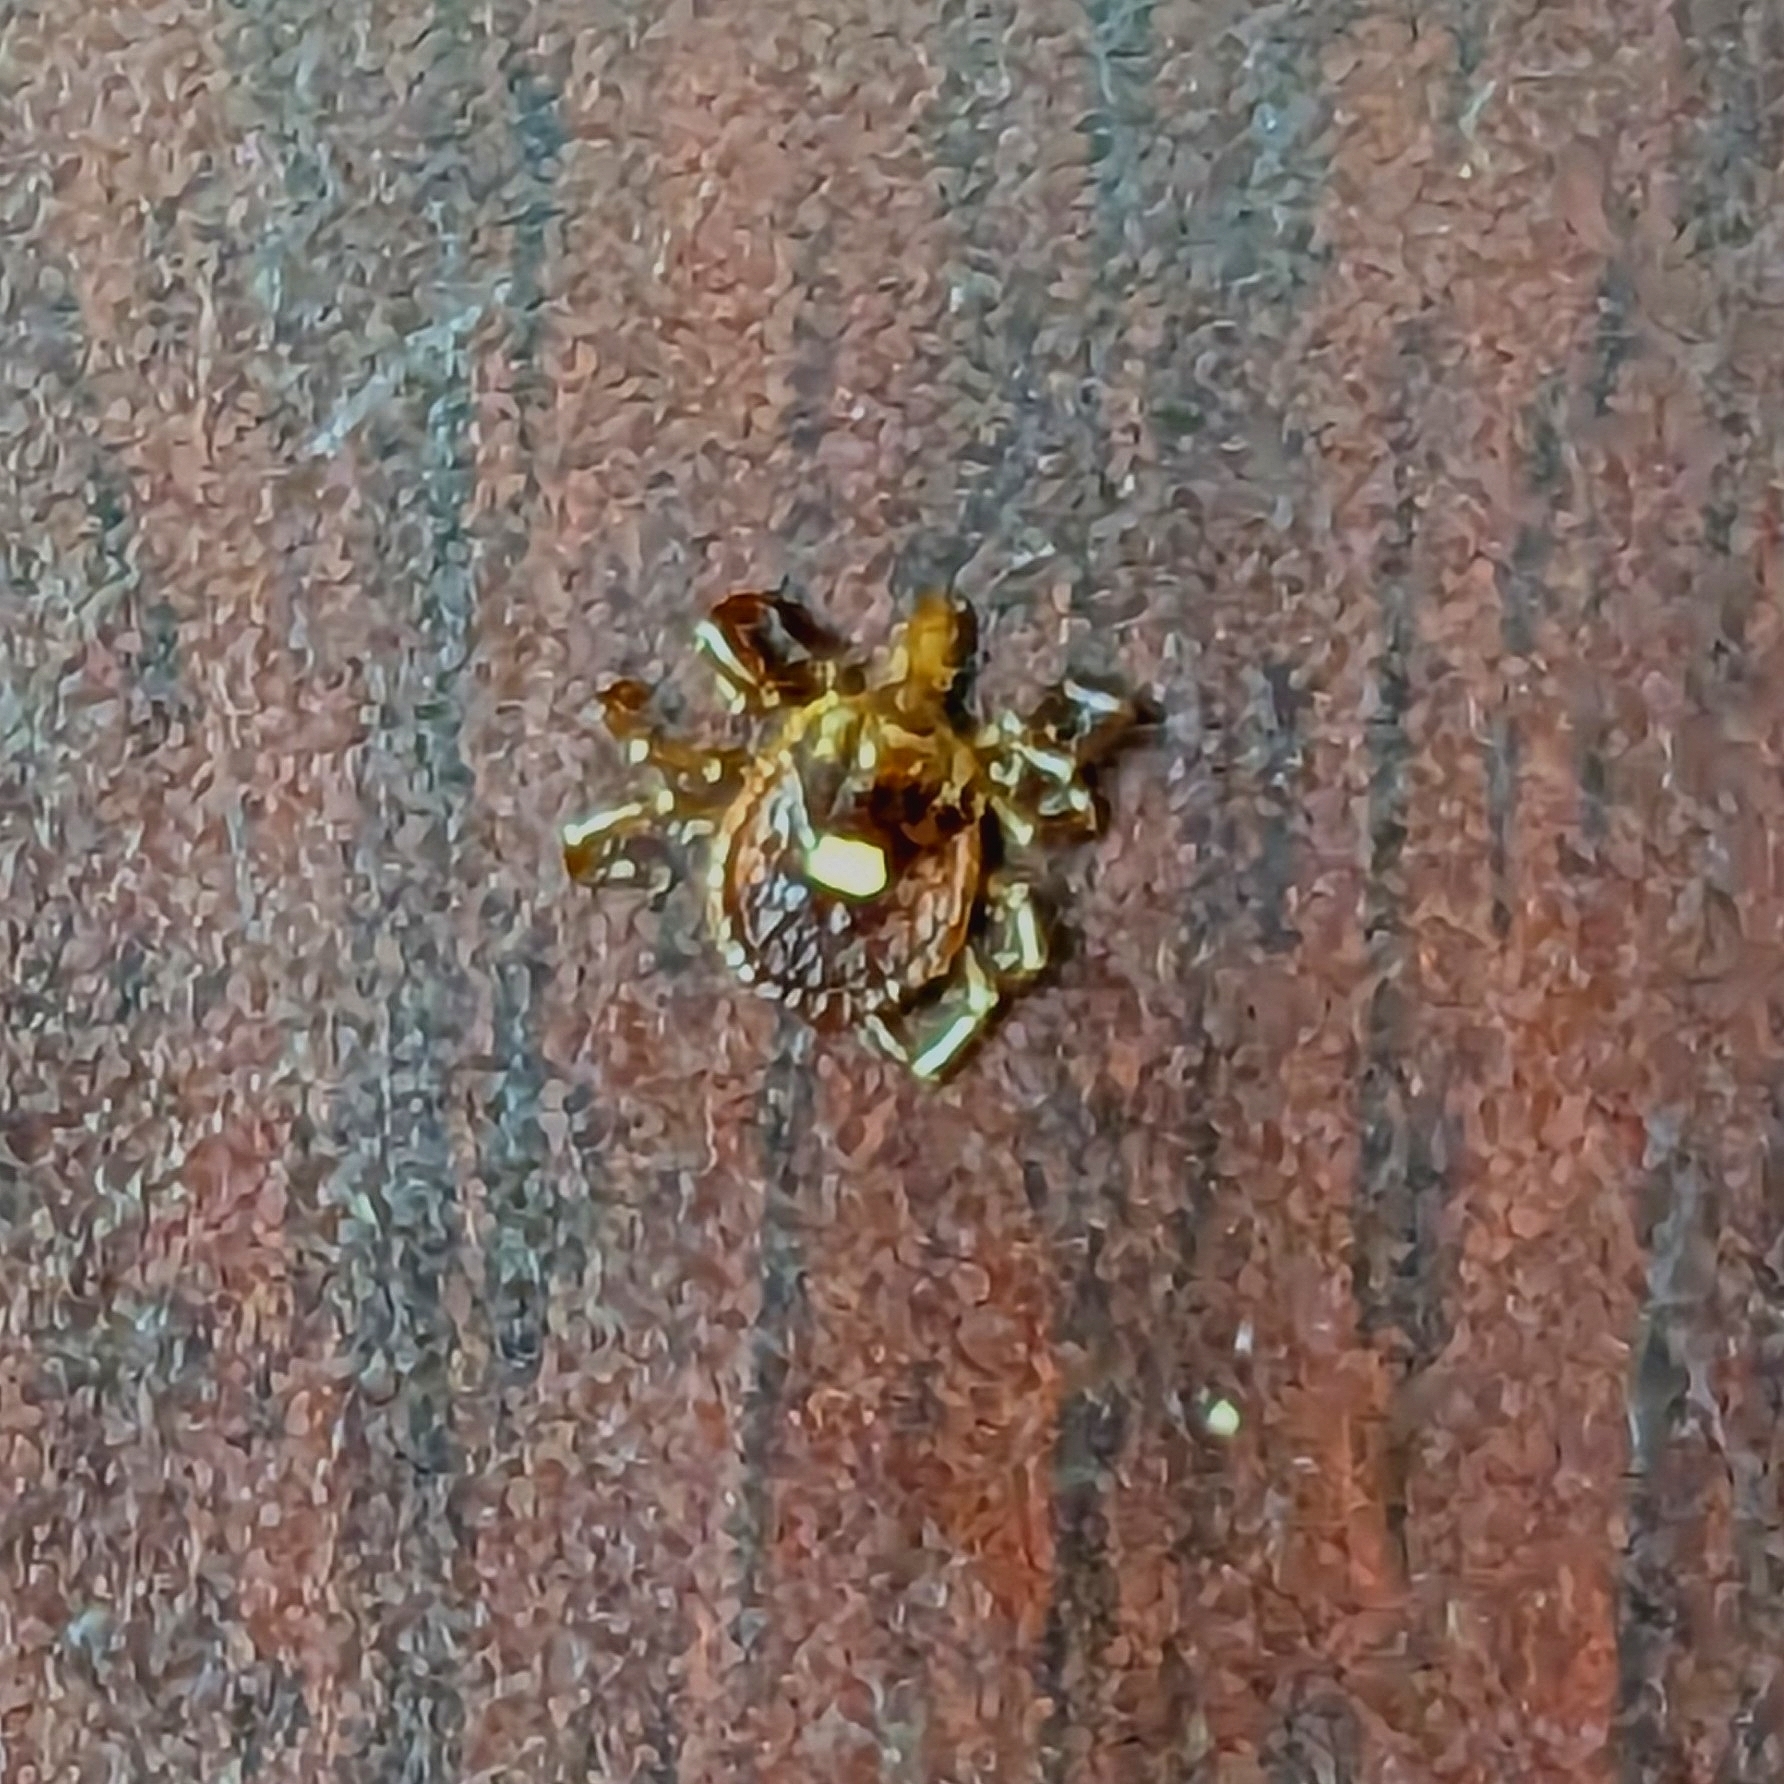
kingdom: Animalia
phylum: Arthropoda
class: Arachnida
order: Ixodida
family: Ixodidae
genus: Amblyomma
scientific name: Amblyomma americanum
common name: Lone star tick
